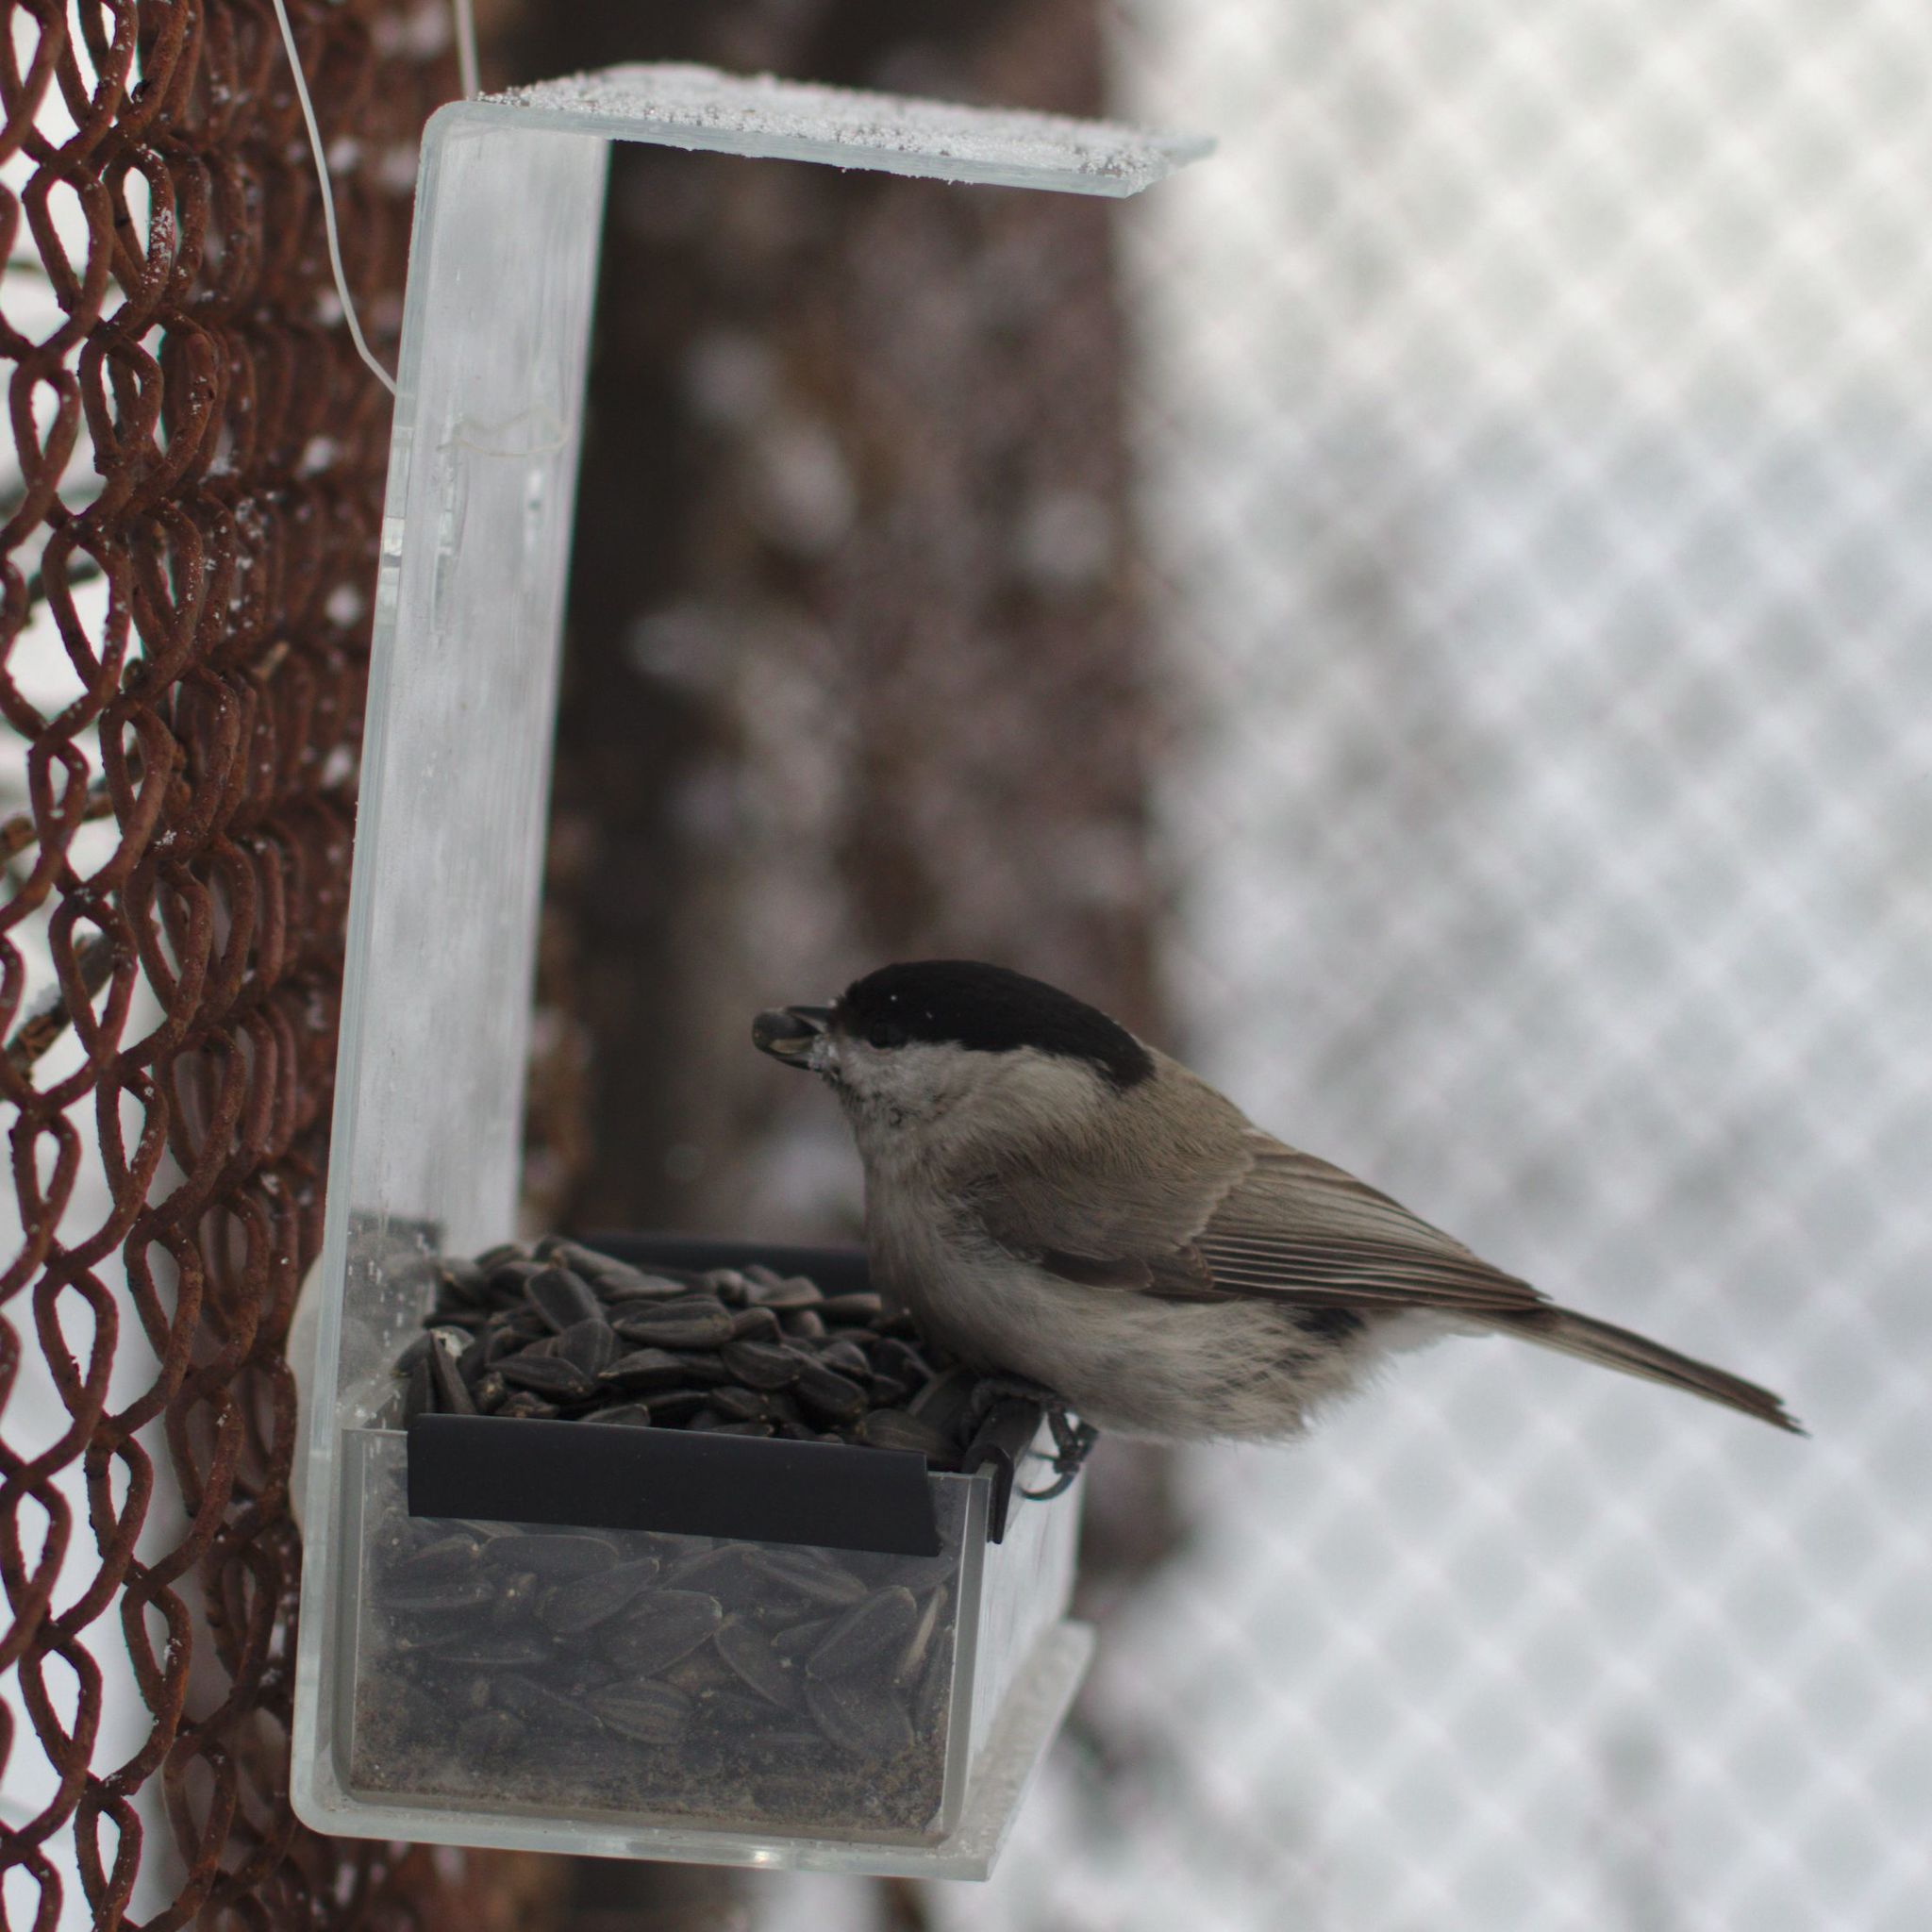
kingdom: Animalia
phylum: Chordata
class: Aves
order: Passeriformes
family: Paridae
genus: Poecile
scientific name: Poecile palustris
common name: Marsh tit
